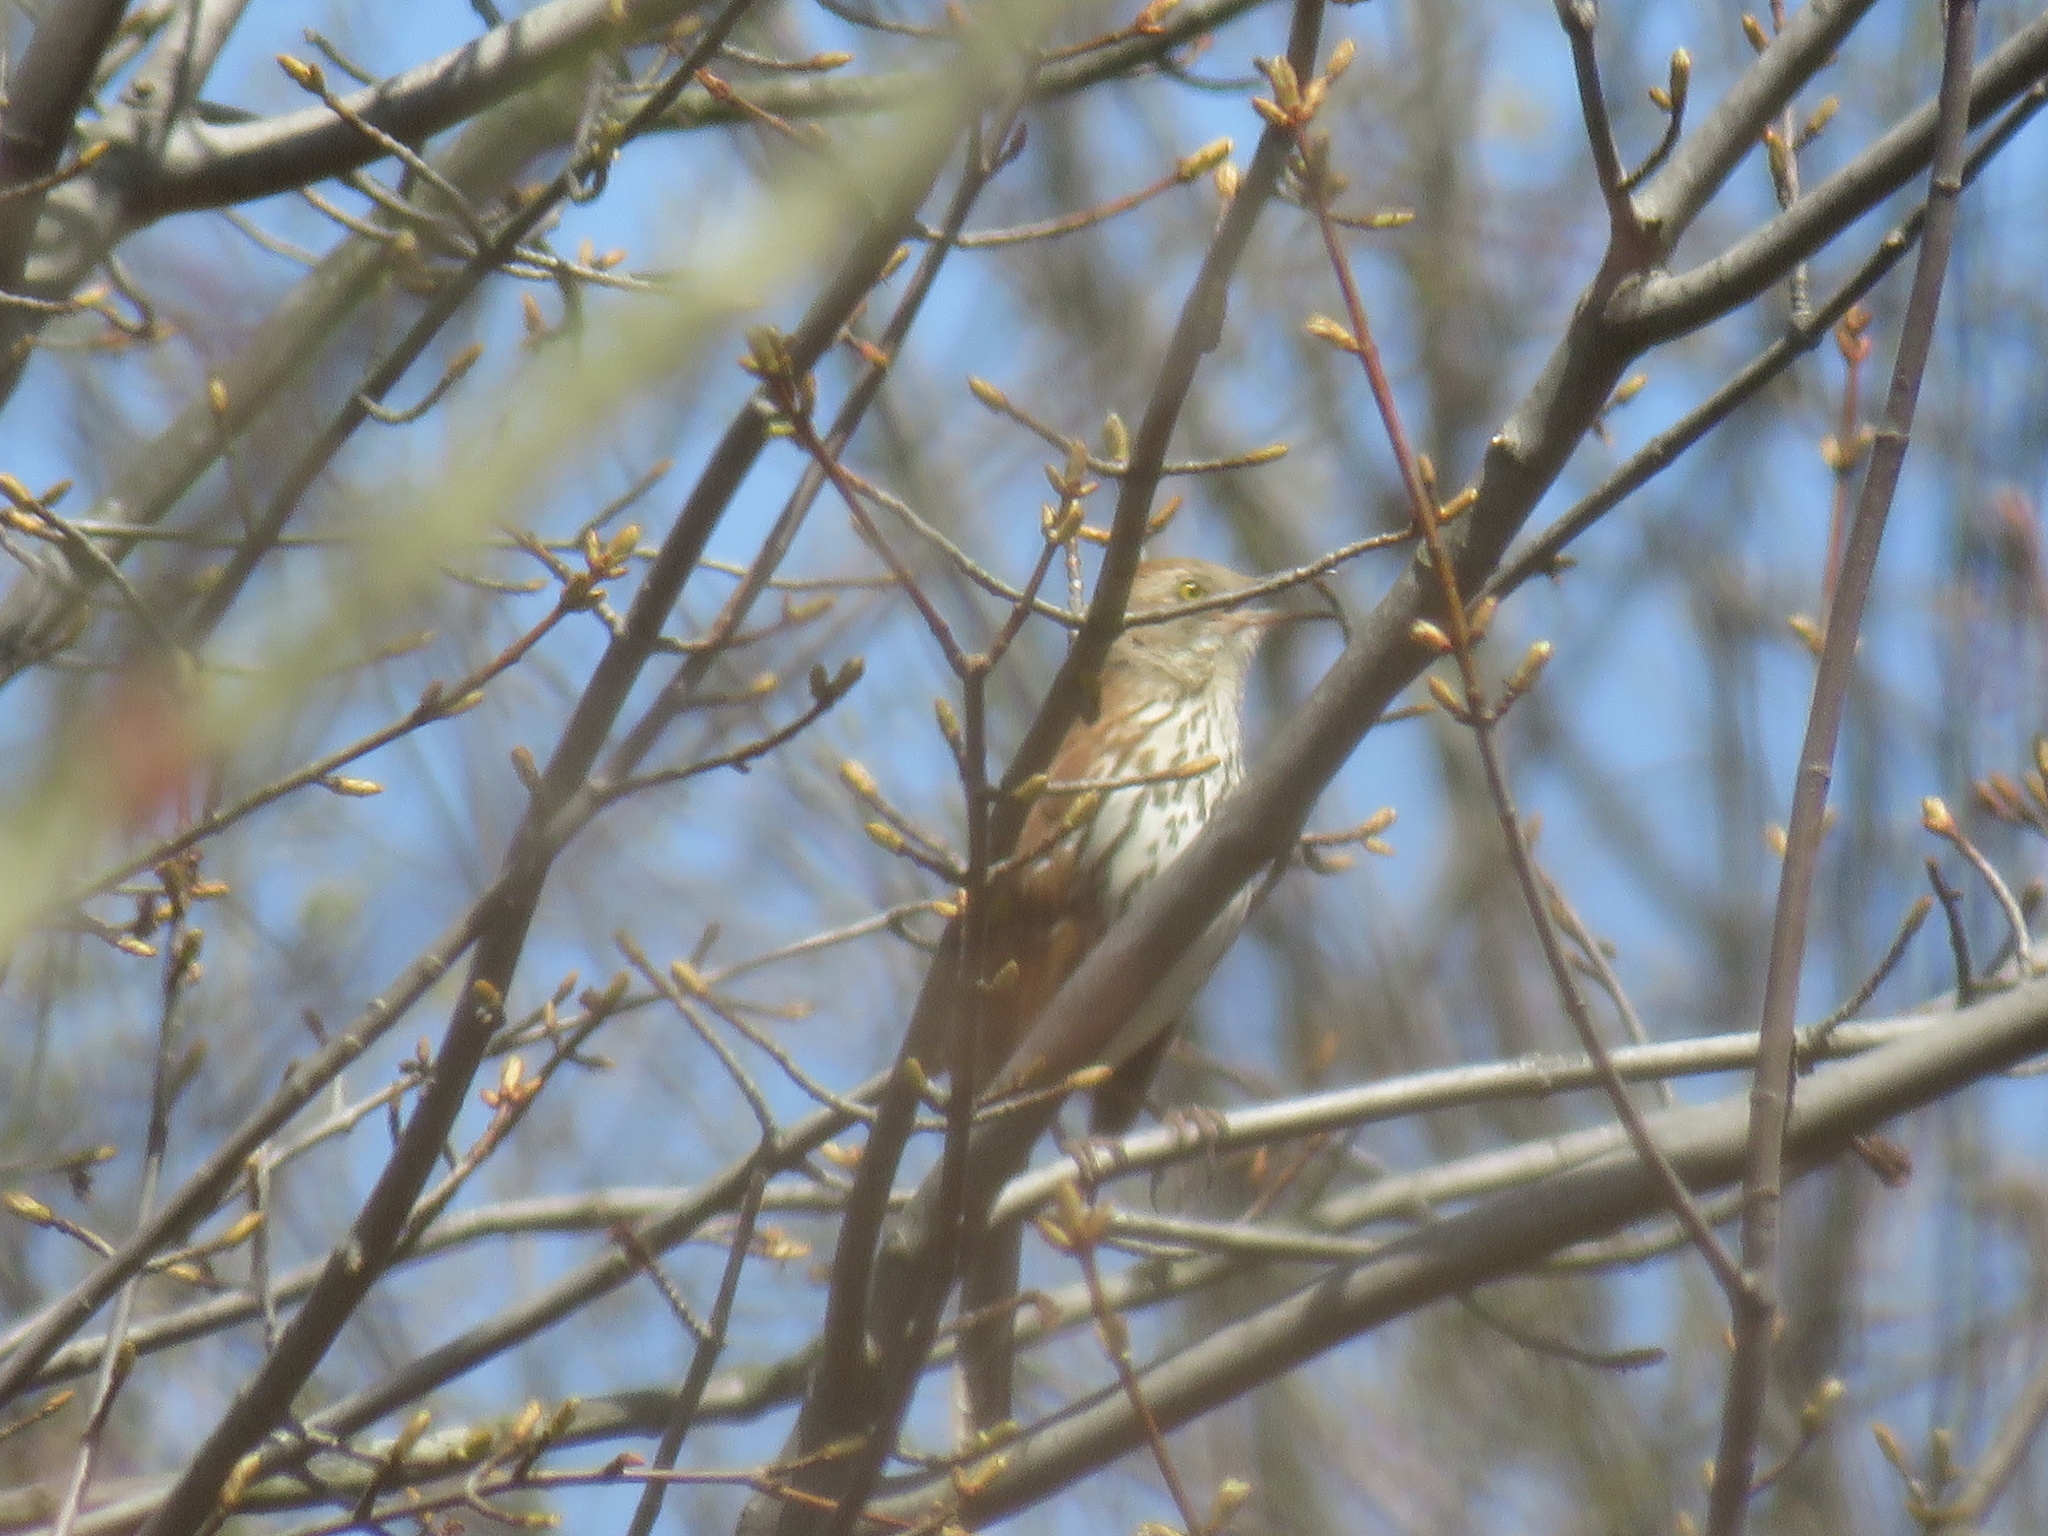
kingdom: Animalia
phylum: Chordata
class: Aves
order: Passeriformes
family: Mimidae
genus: Toxostoma
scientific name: Toxostoma rufum
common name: Brown thrasher
